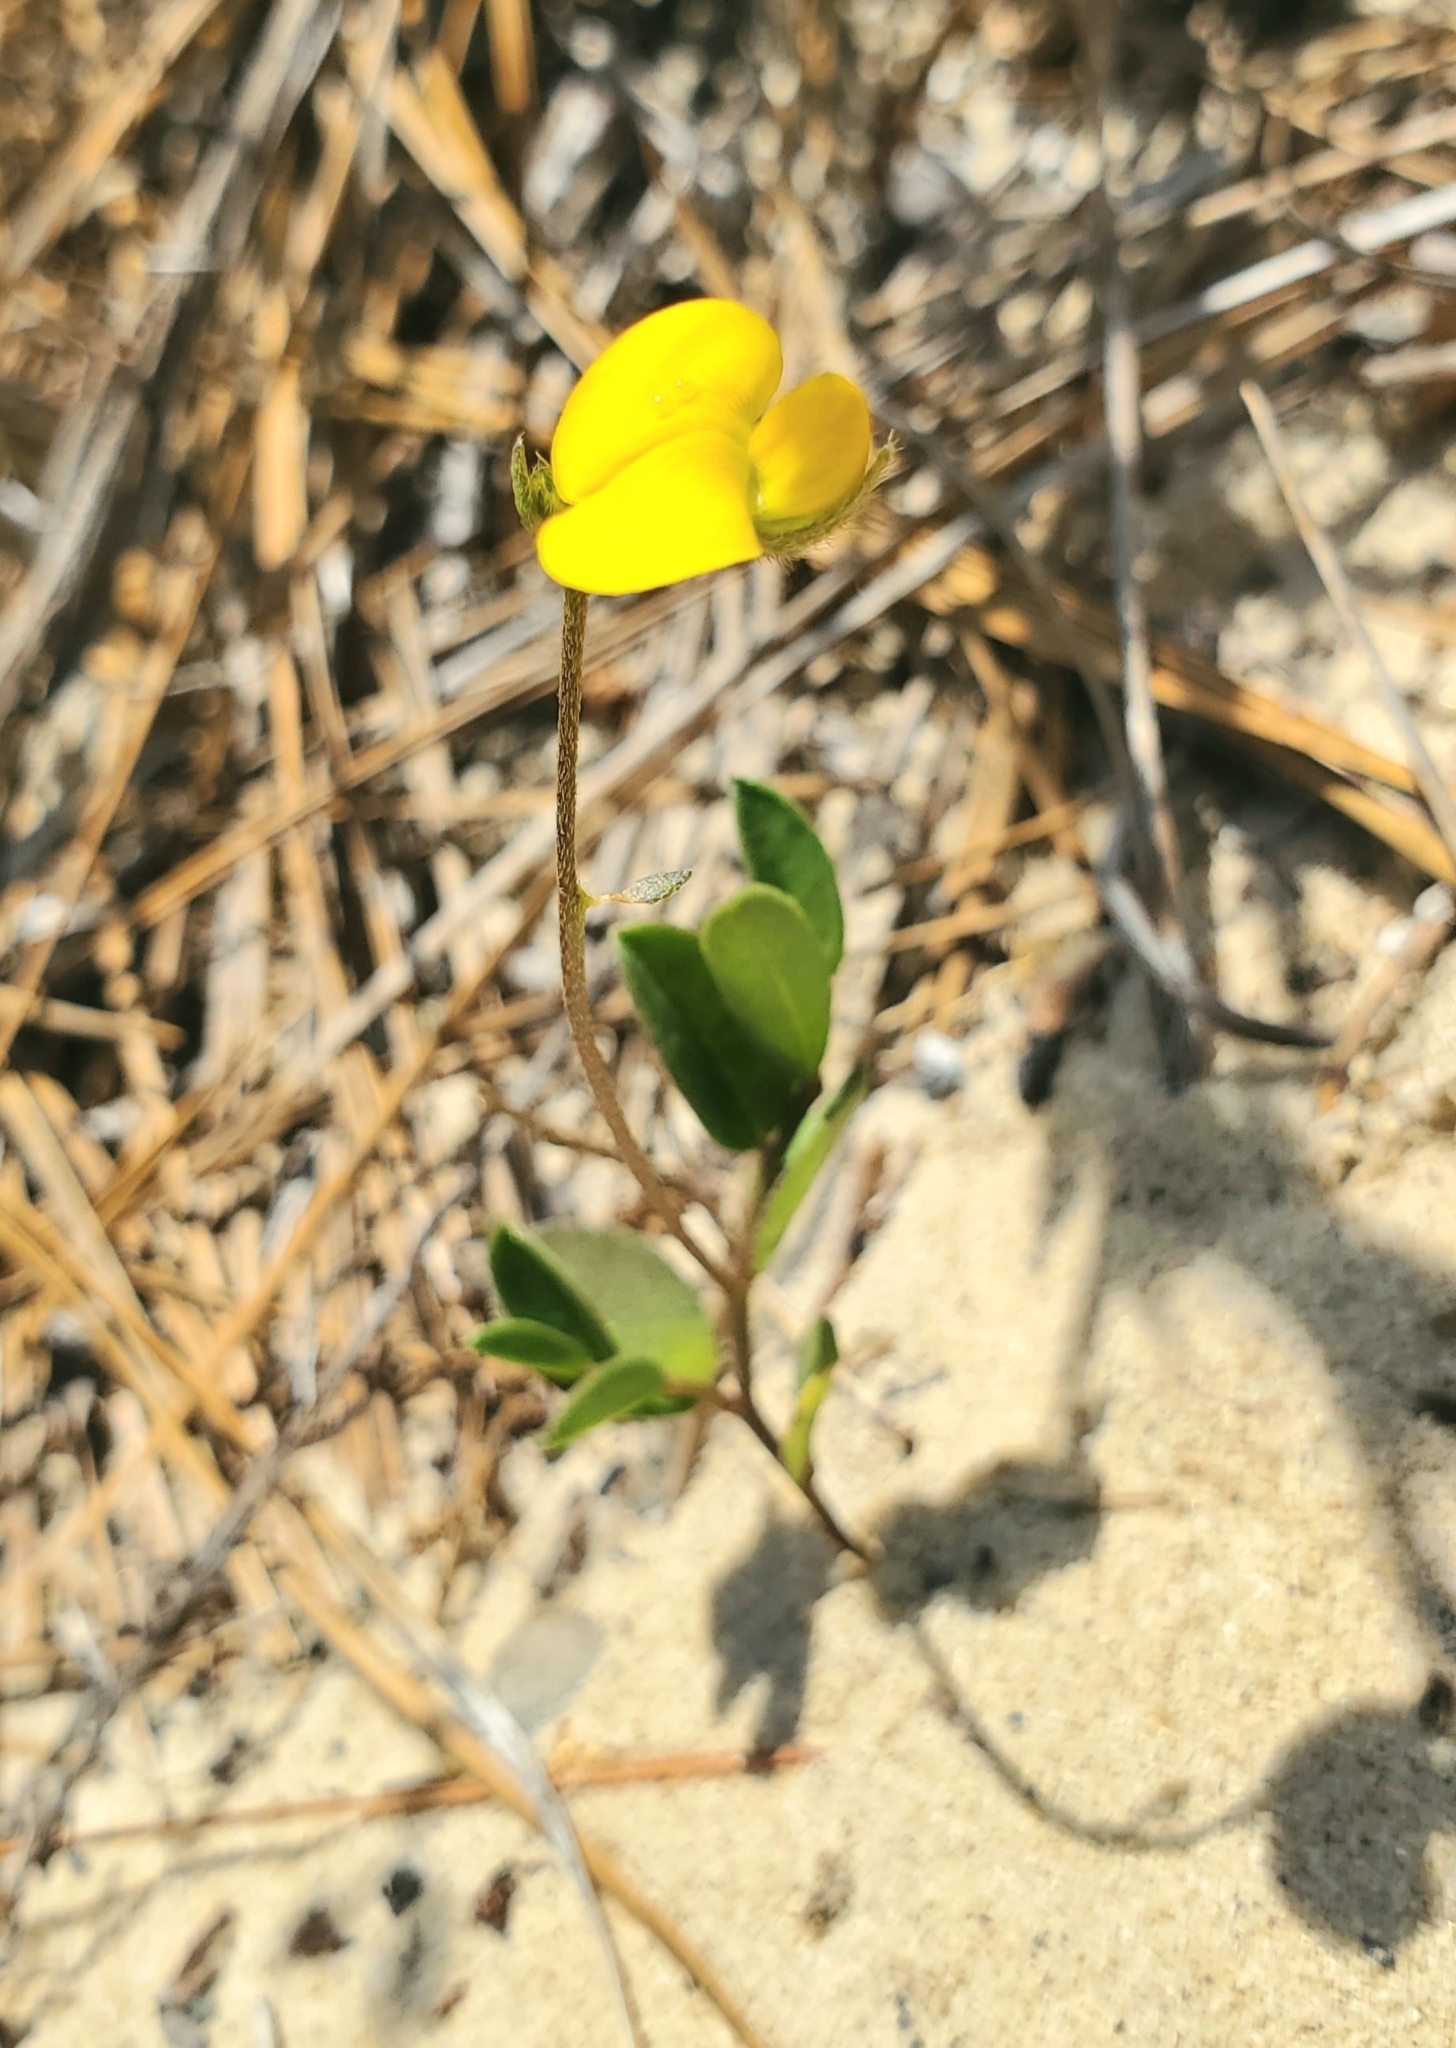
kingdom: Plantae
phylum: Tracheophyta
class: Magnoliopsida
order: Fabales
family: Fabaceae
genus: Crotalaria
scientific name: Crotalaria rotundifolia
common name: Prostrate rattlebox
